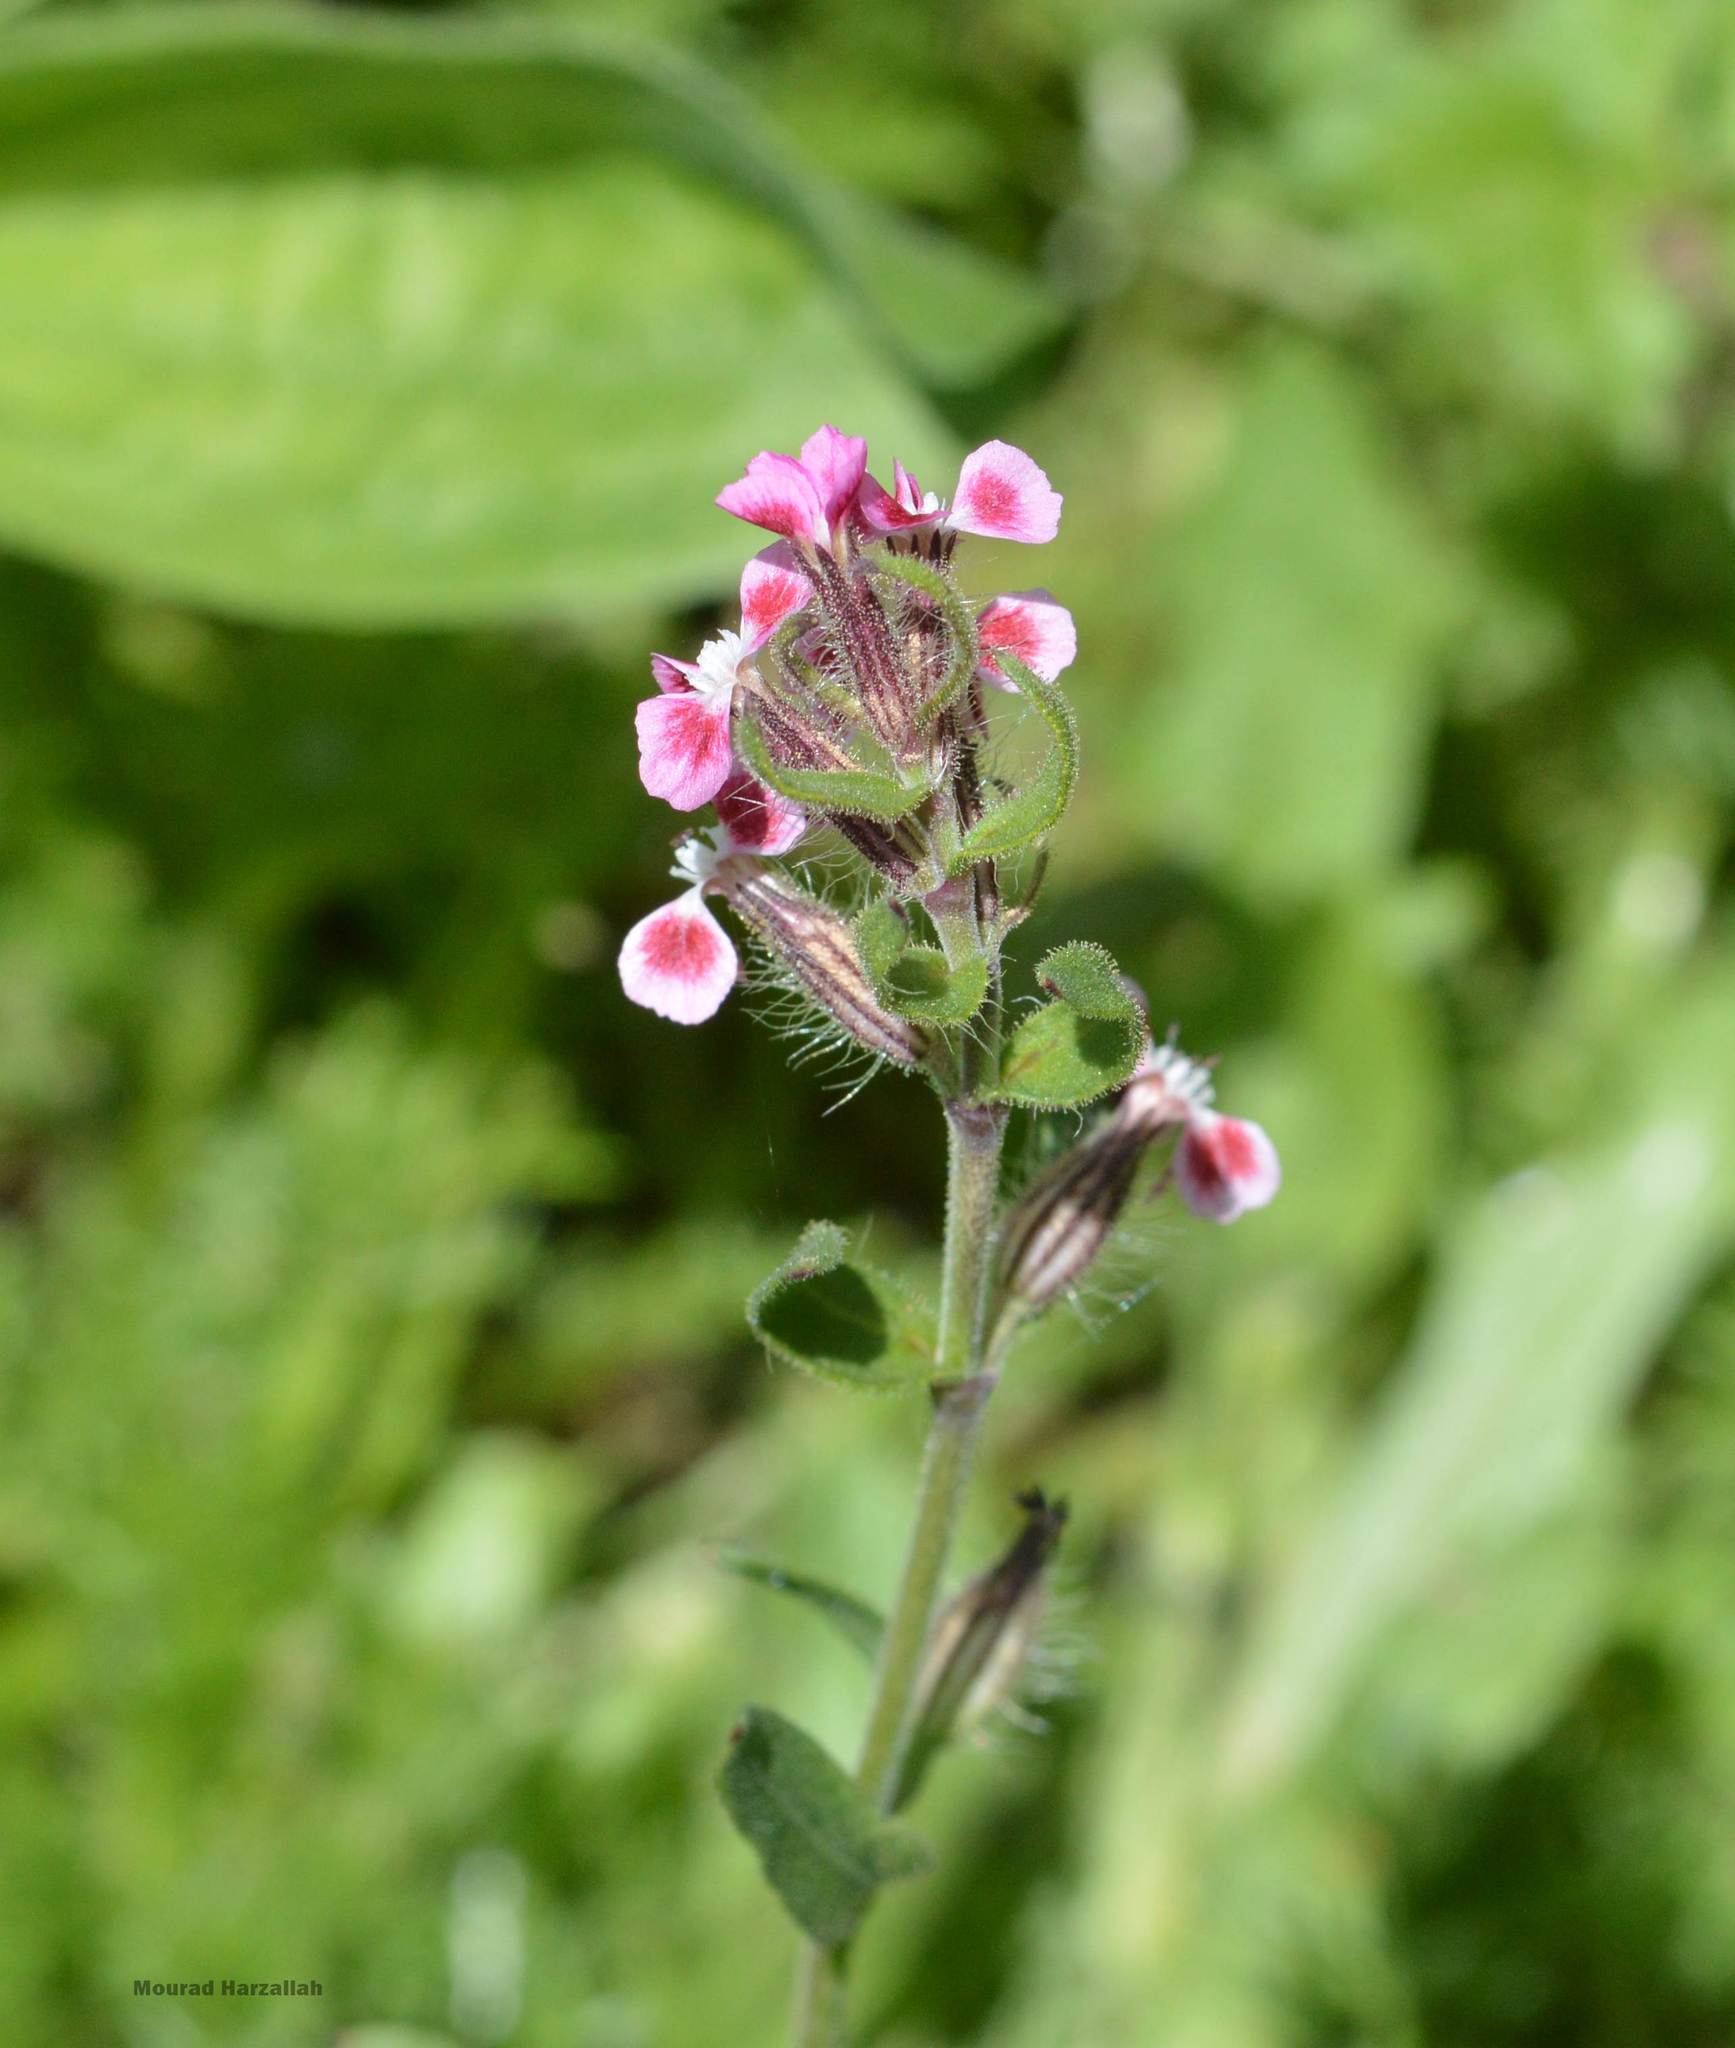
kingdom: Plantae
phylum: Tracheophyta
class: Magnoliopsida
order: Caryophyllales
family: Caryophyllaceae
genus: Silene
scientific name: Silene gallica
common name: Small-flowered catchfly
